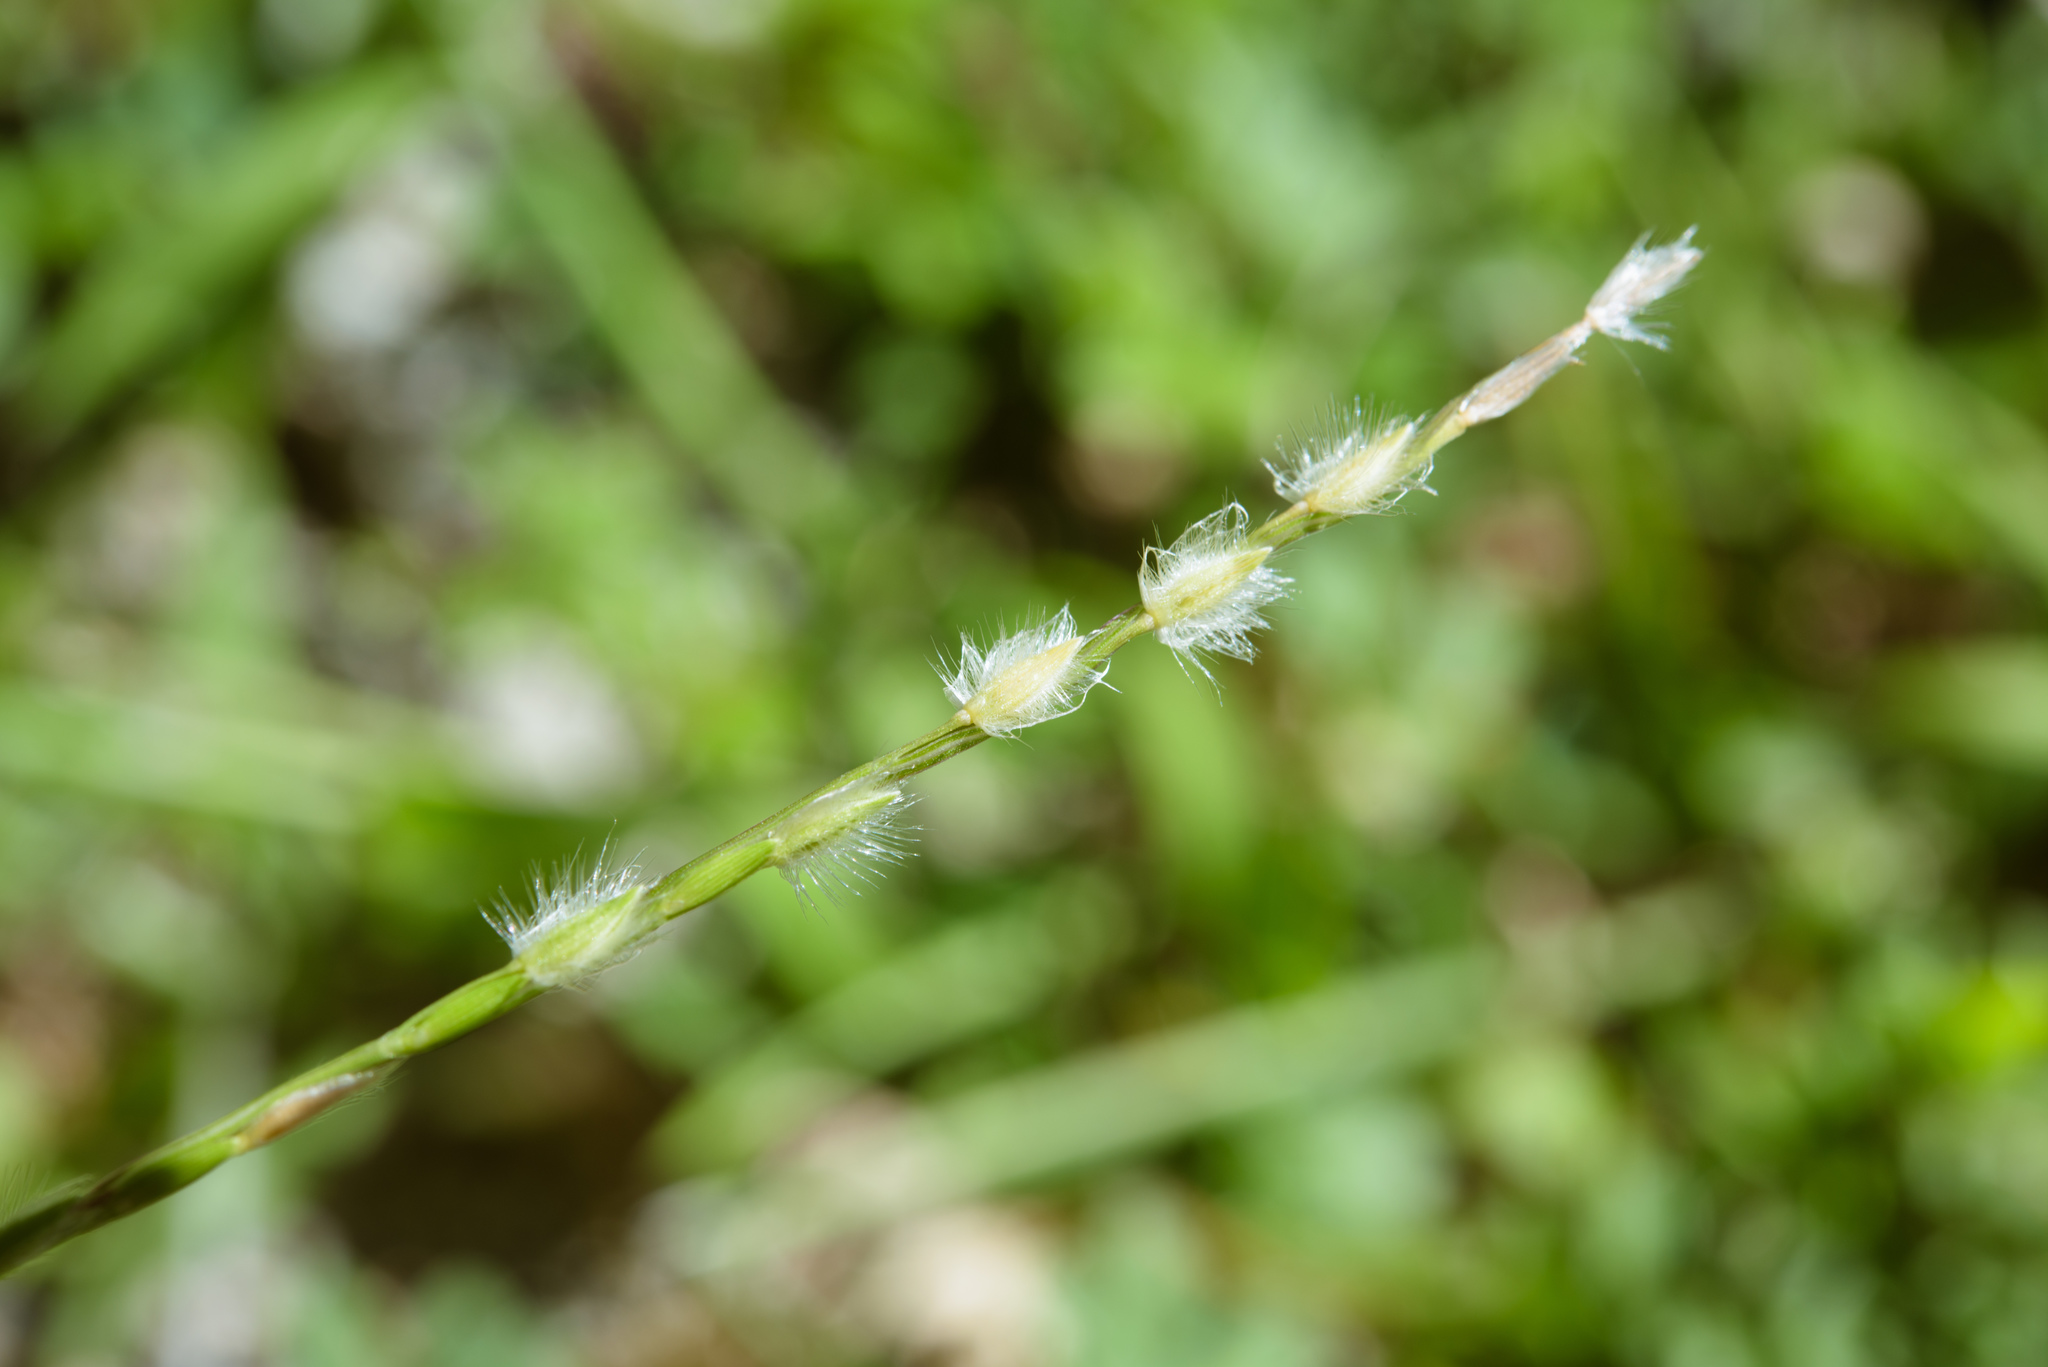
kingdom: Plantae
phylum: Tracheophyta
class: Liliopsida
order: Poales
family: Poaceae
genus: Digitaria
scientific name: Digitaria heterantha
